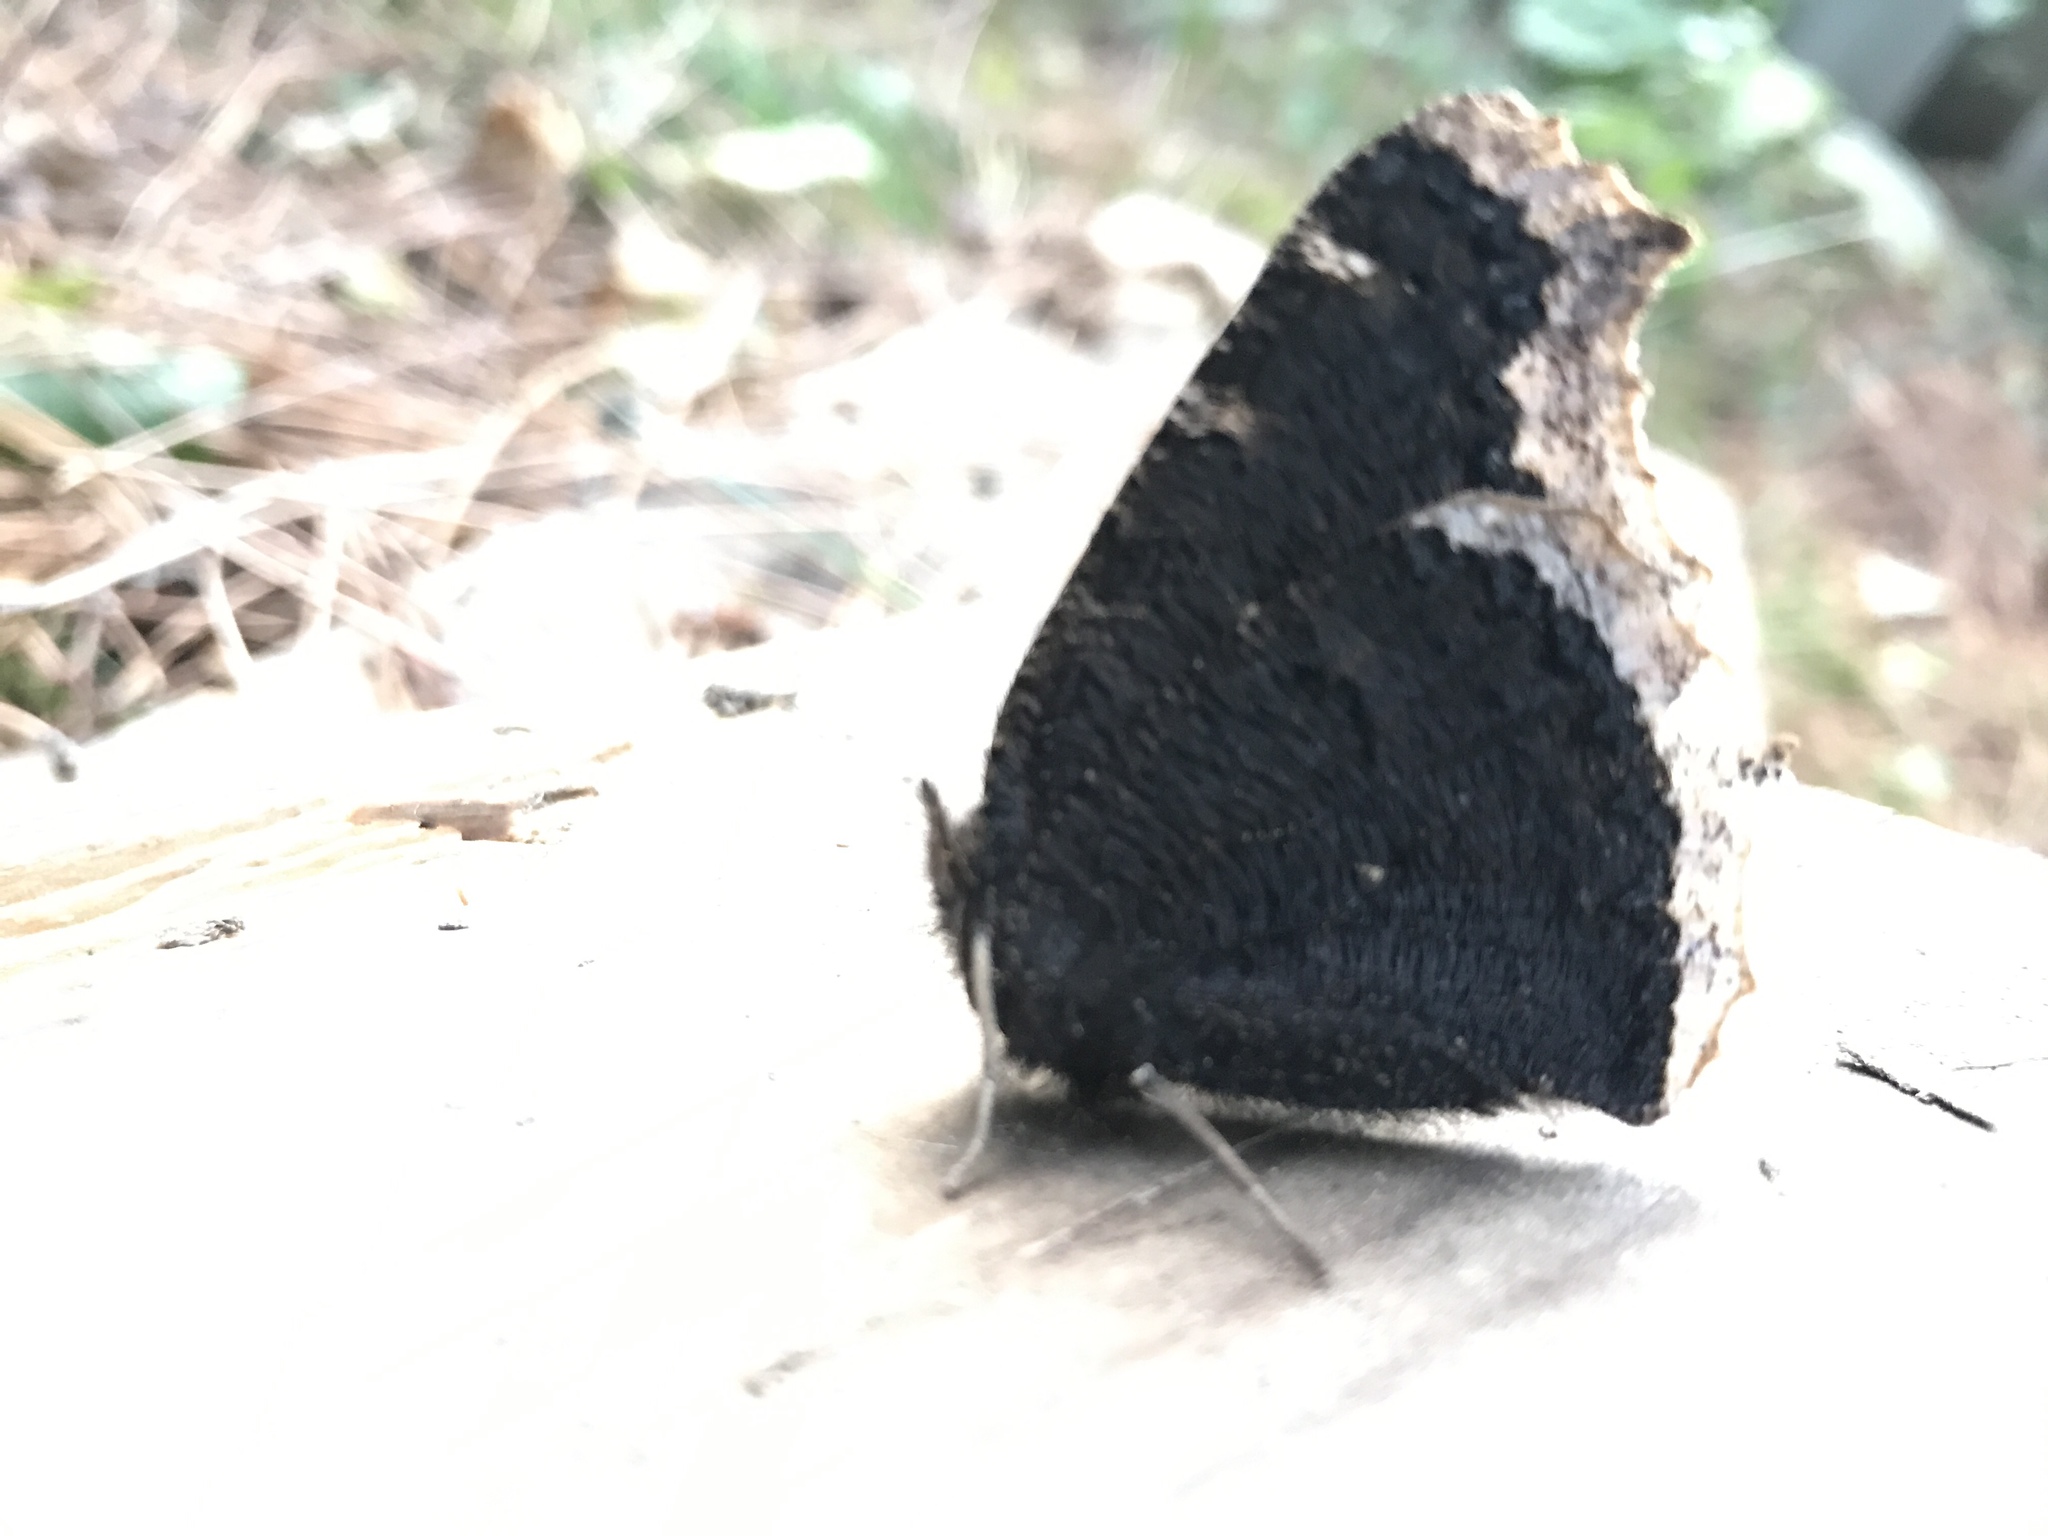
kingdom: Animalia
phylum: Arthropoda
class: Insecta
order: Lepidoptera
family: Nymphalidae
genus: Nymphalis
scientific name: Nymphalis antiopa
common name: Camberwell beauty
